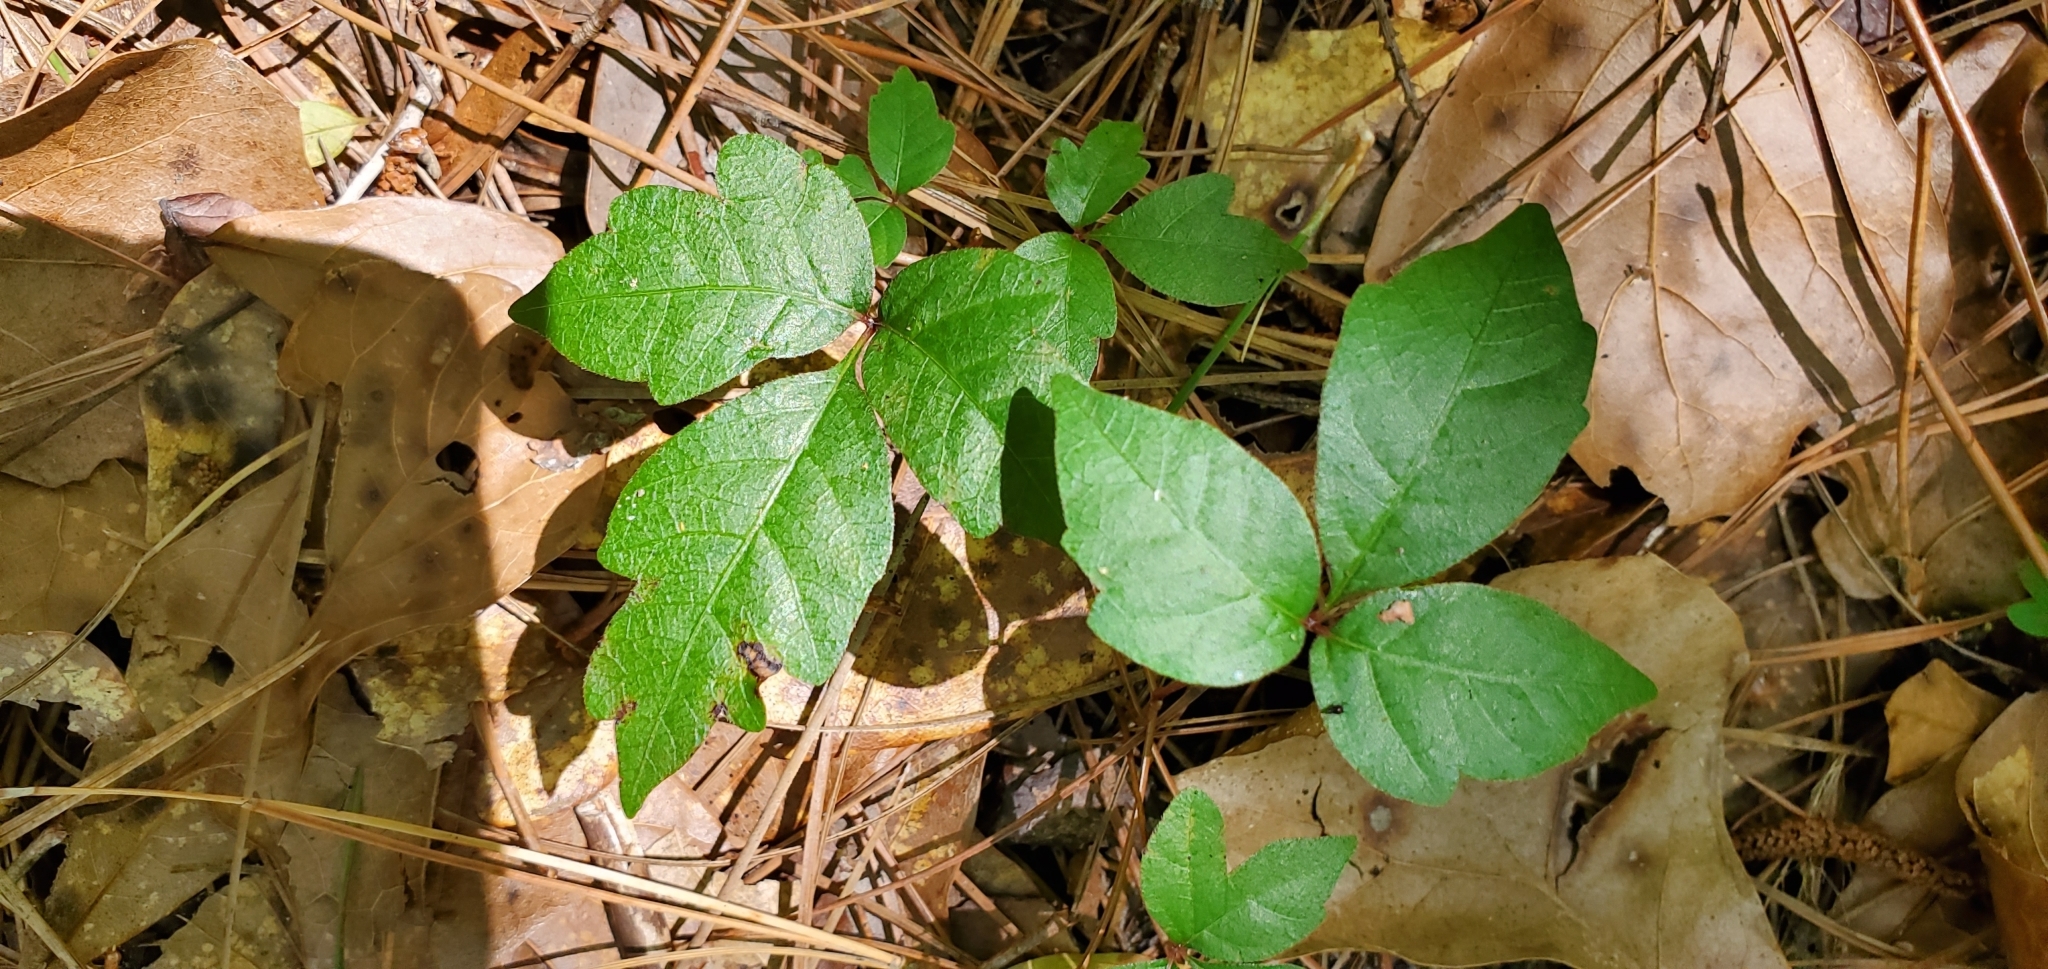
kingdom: Plantae
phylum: Tracheophyta
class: Magnoliopsida
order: Sapindales
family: Anacardiaceae
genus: Toxicodendron
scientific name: Toxicodendron radicans
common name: Poison ivy
